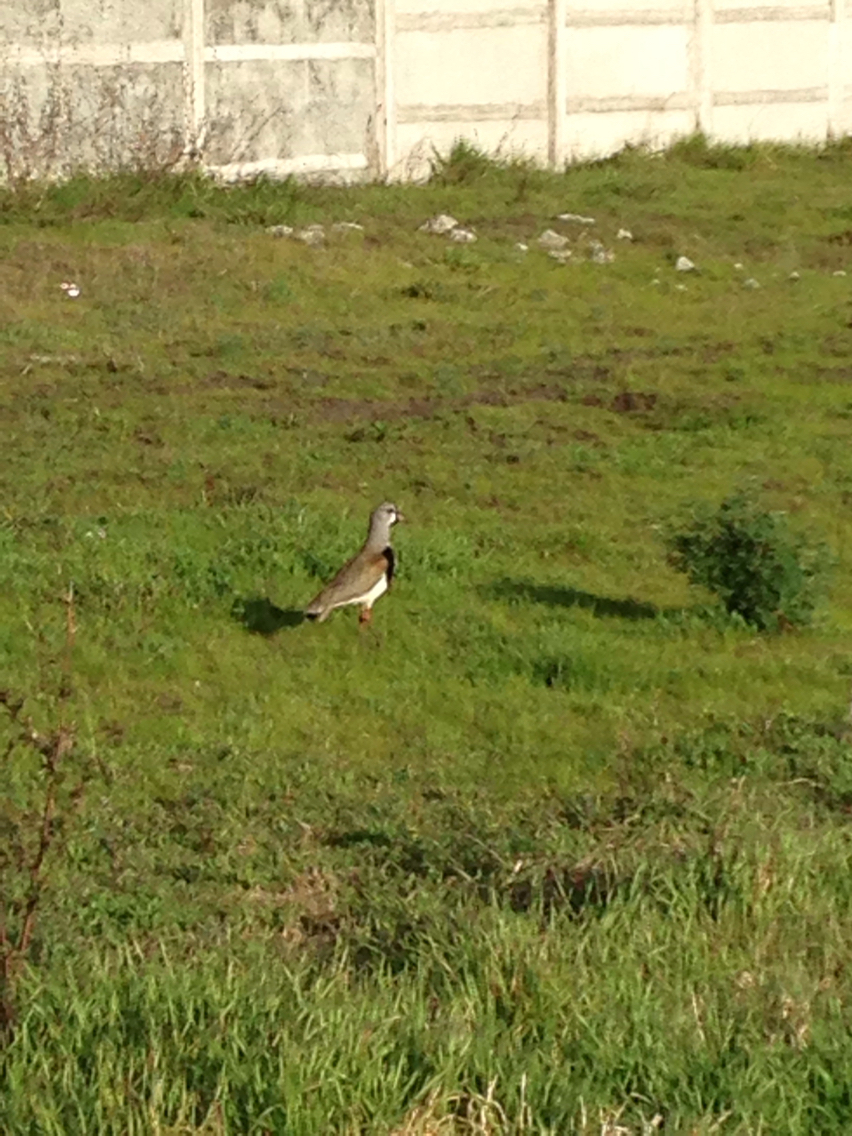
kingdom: Animalia
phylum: Chordata
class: Aves
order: Charadriiformes
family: Charadriidae
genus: Vanellus
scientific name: Vanellus chilensis
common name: Southern lapwing
